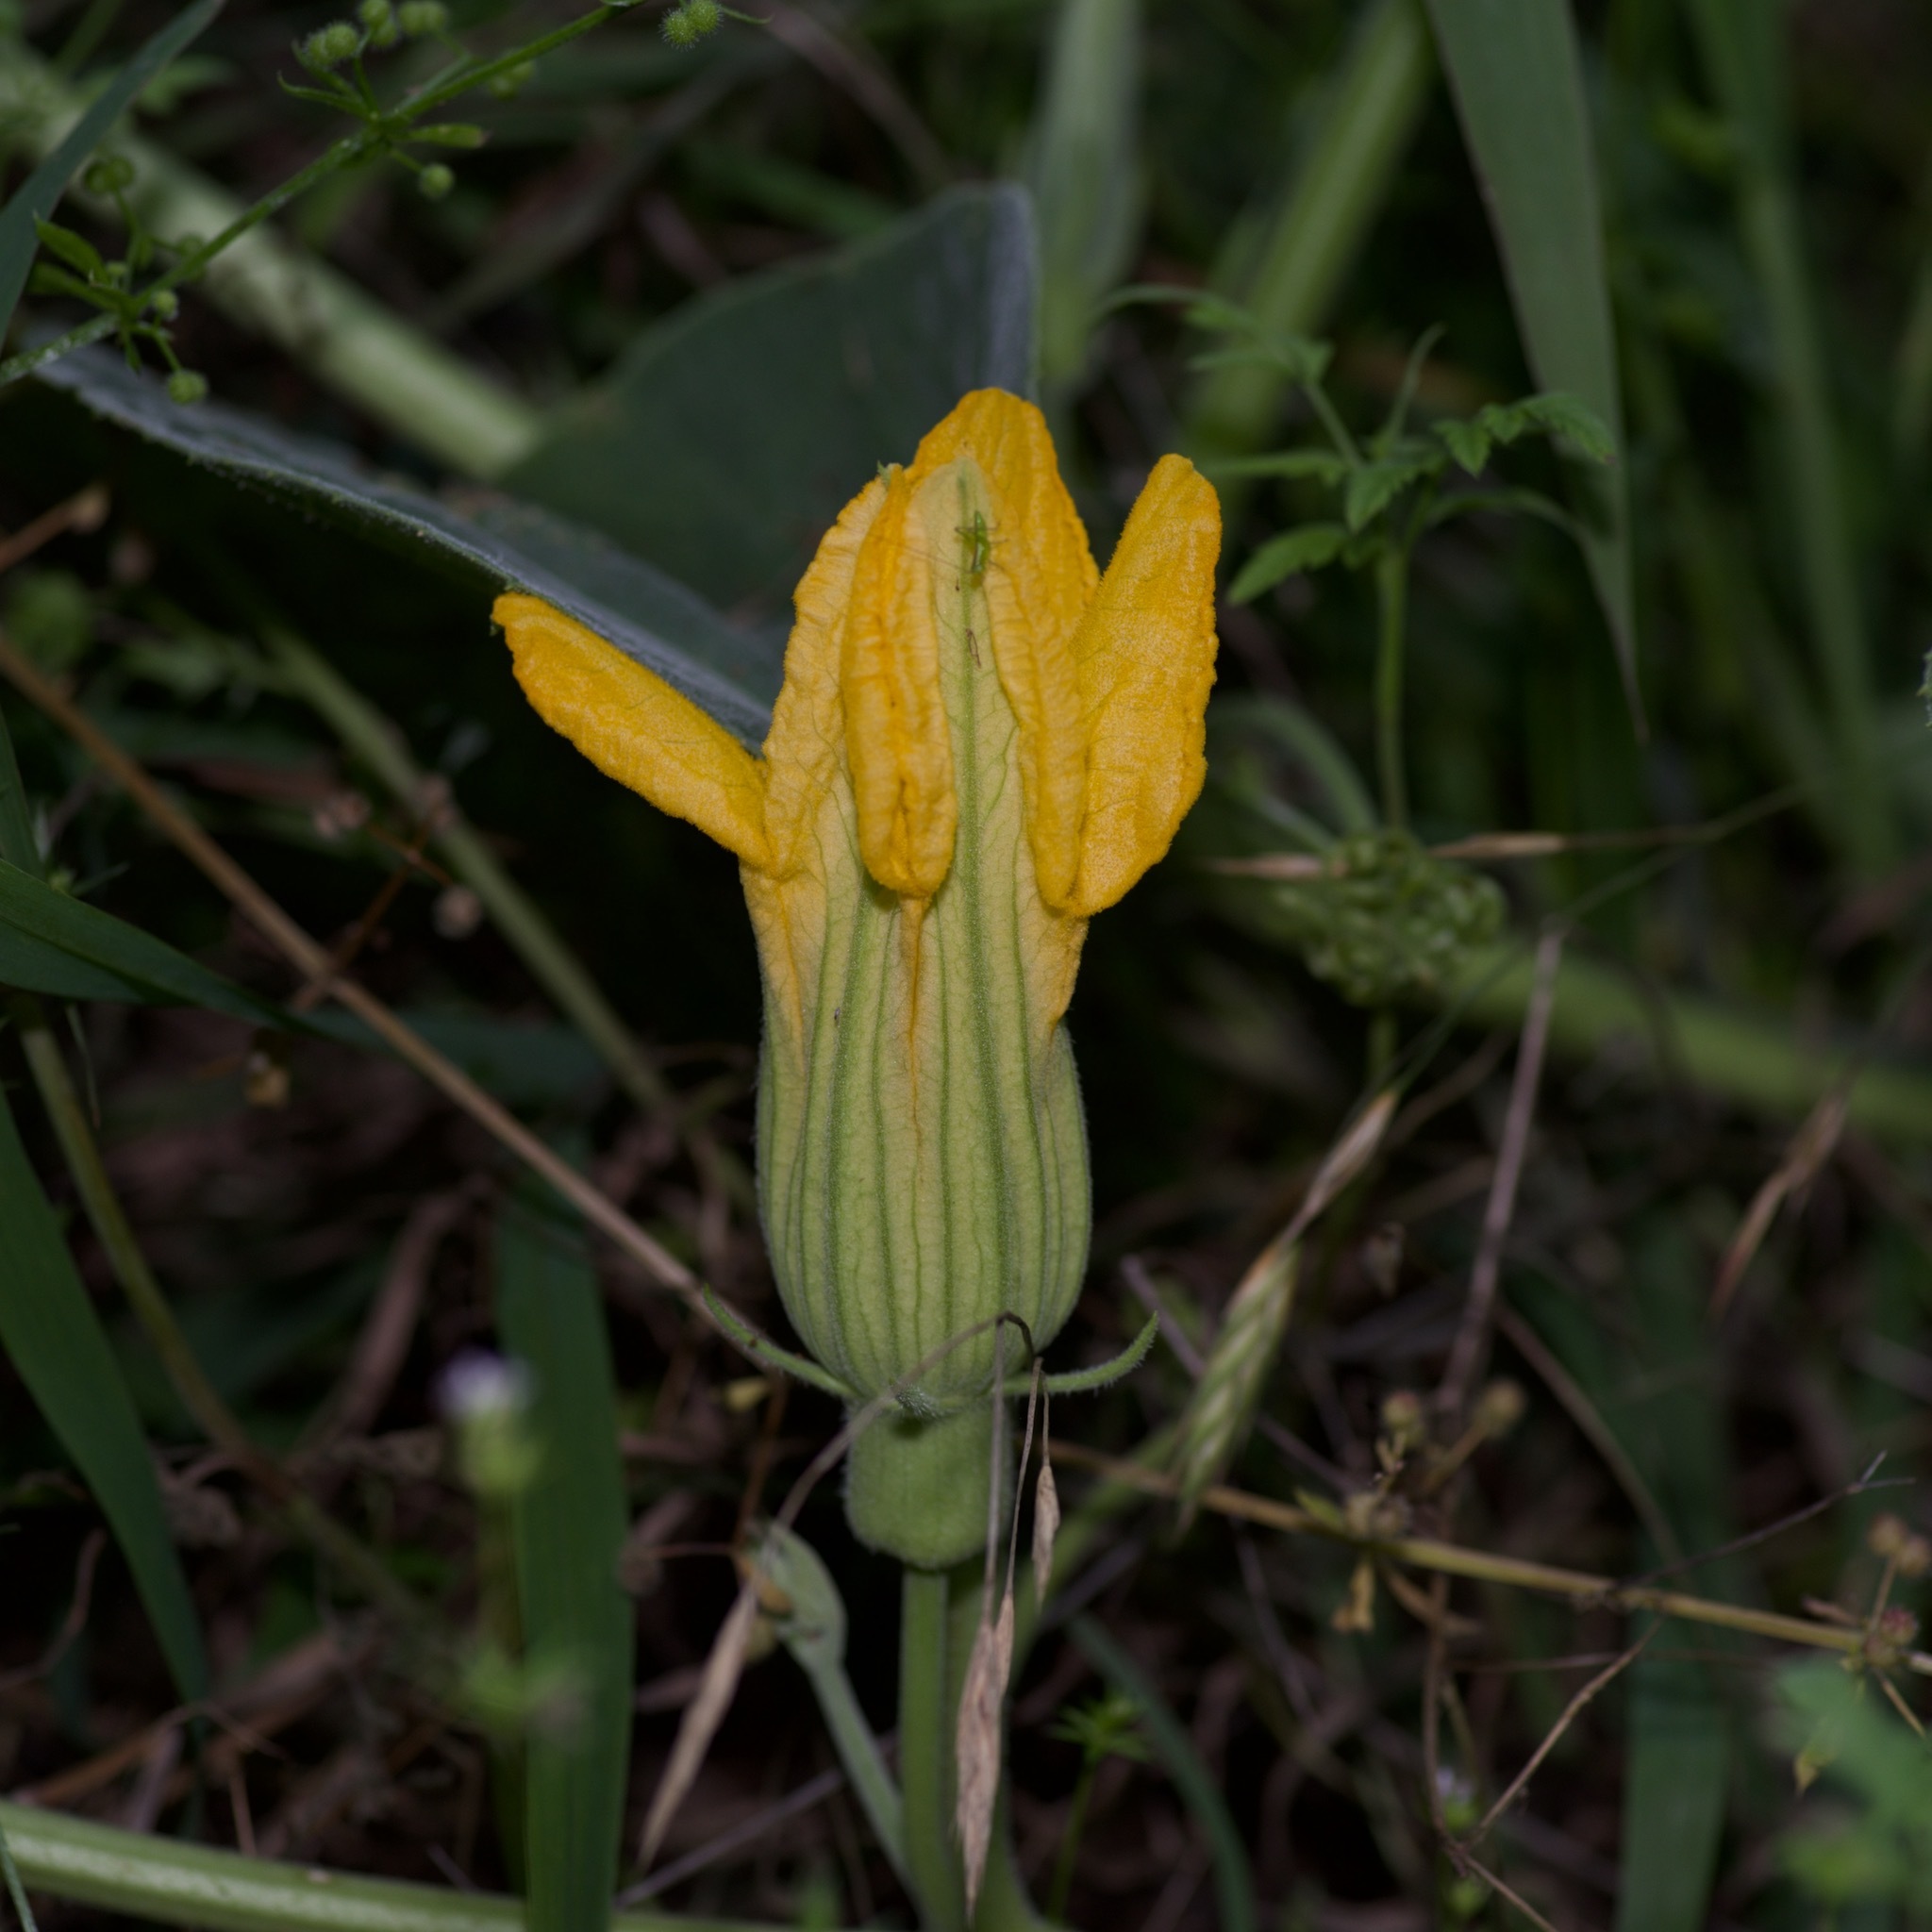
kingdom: Plantae
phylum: Tracheophyta
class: Magnoliopsida
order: Cucurbitales
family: Cucurbitaceae
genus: Cucurbita
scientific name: Cucurbita foetidissima
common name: Buffalo gourd
